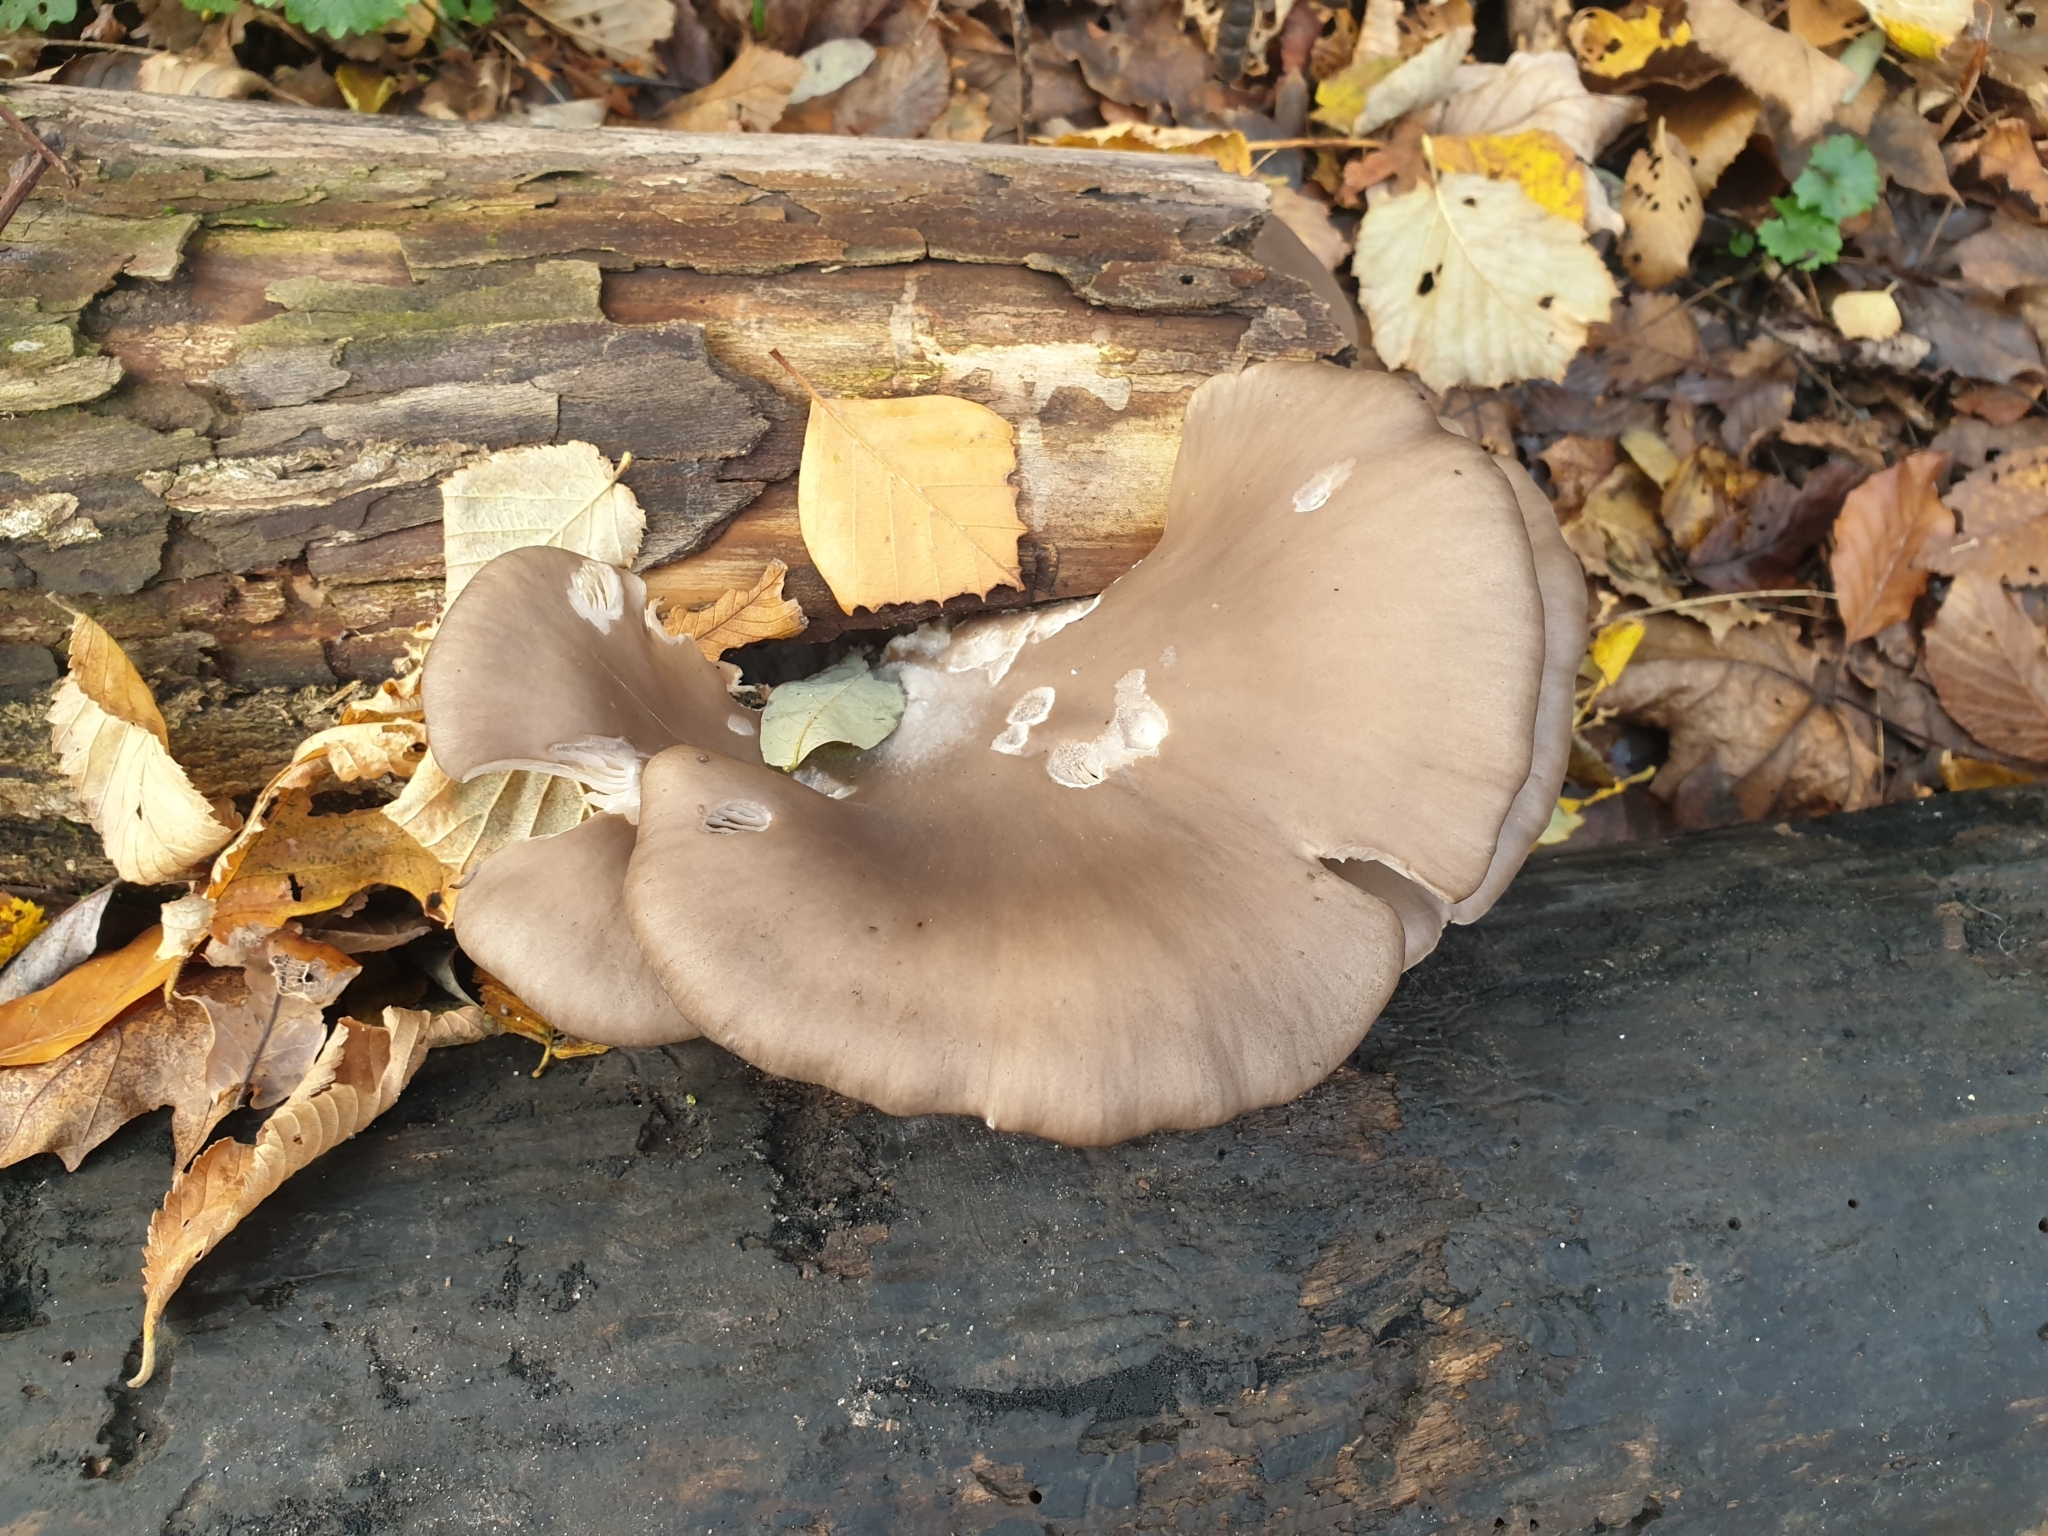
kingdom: Fungi
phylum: Basidiomycota
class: Agaricomycetes
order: Agaricales
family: Pleurotaceae
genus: Pleurotus
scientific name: Pleurotus ostreatus
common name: Oyster mushroom
